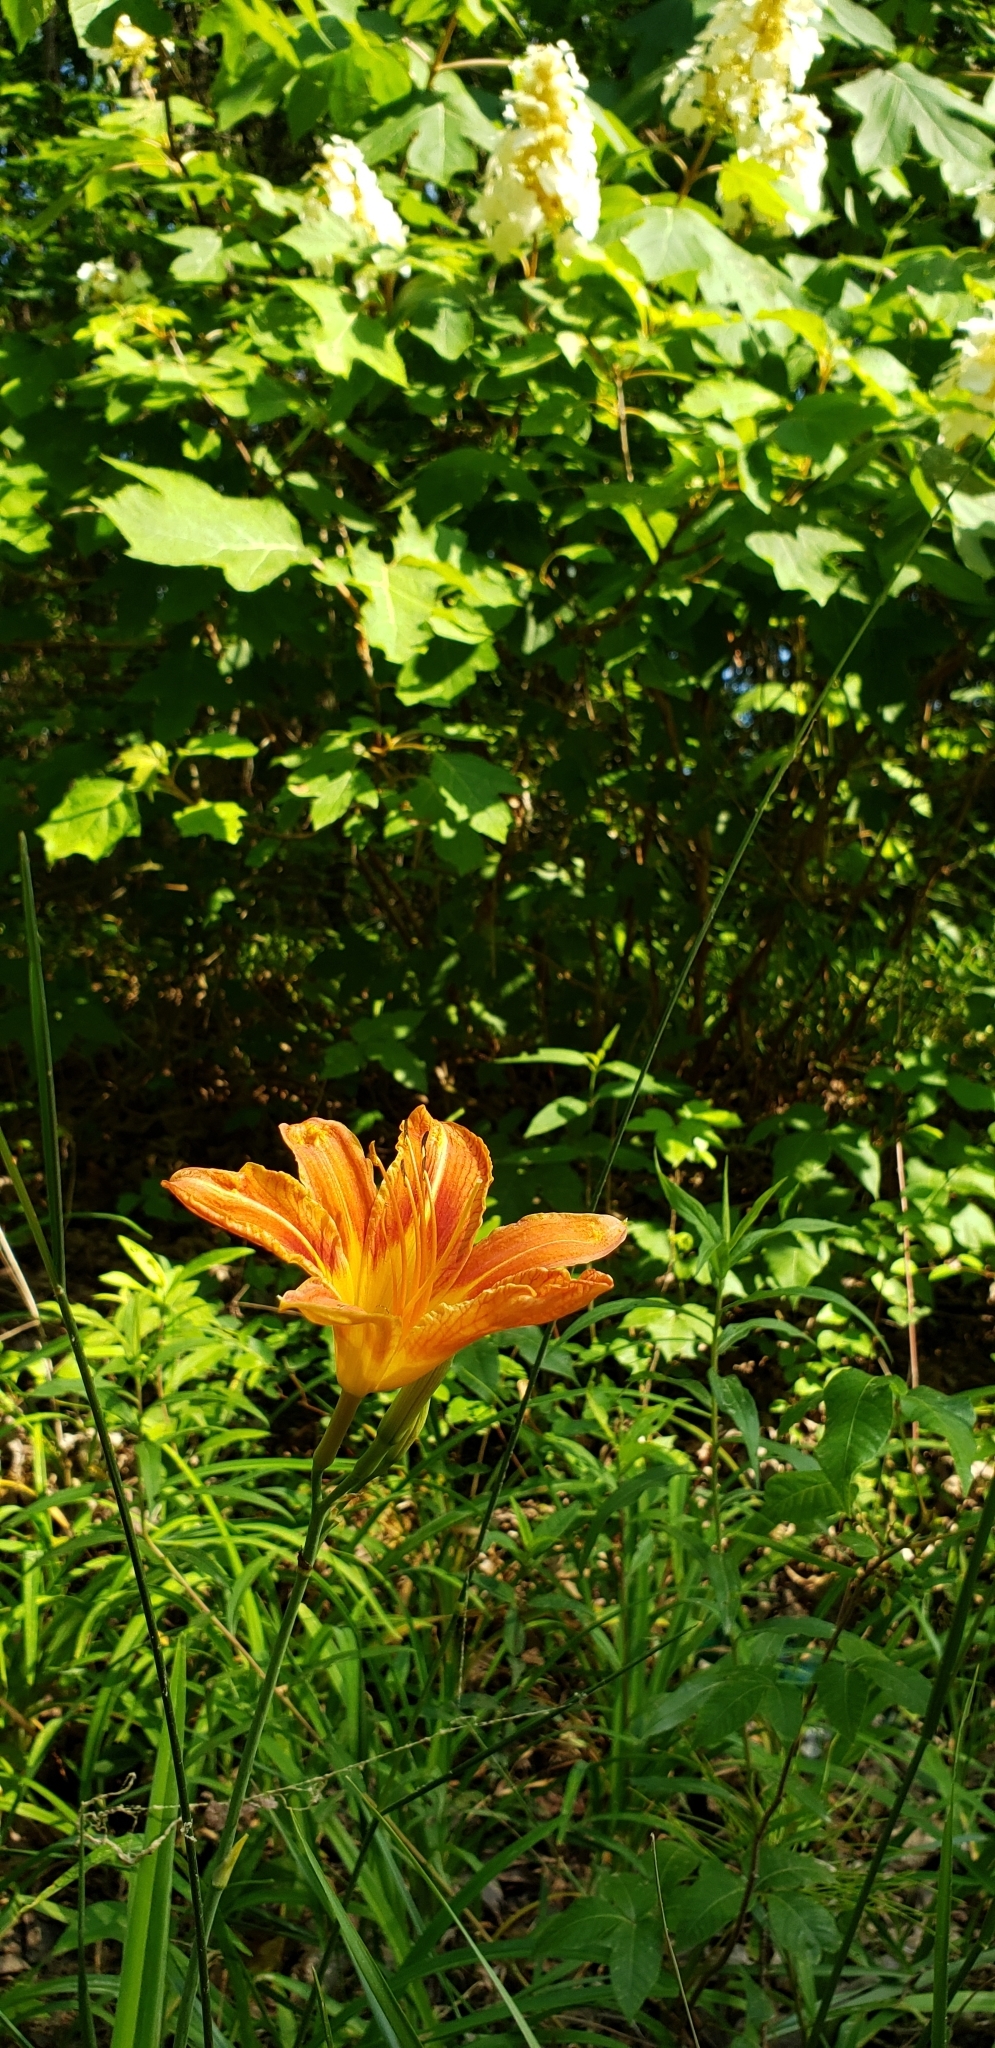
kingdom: Plantae
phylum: Tracheophyta
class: Liliopsida
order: Asparagales
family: Asphodelaceae
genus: Hemerocallis
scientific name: Hemerocallis fulva
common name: Orange day-lily
